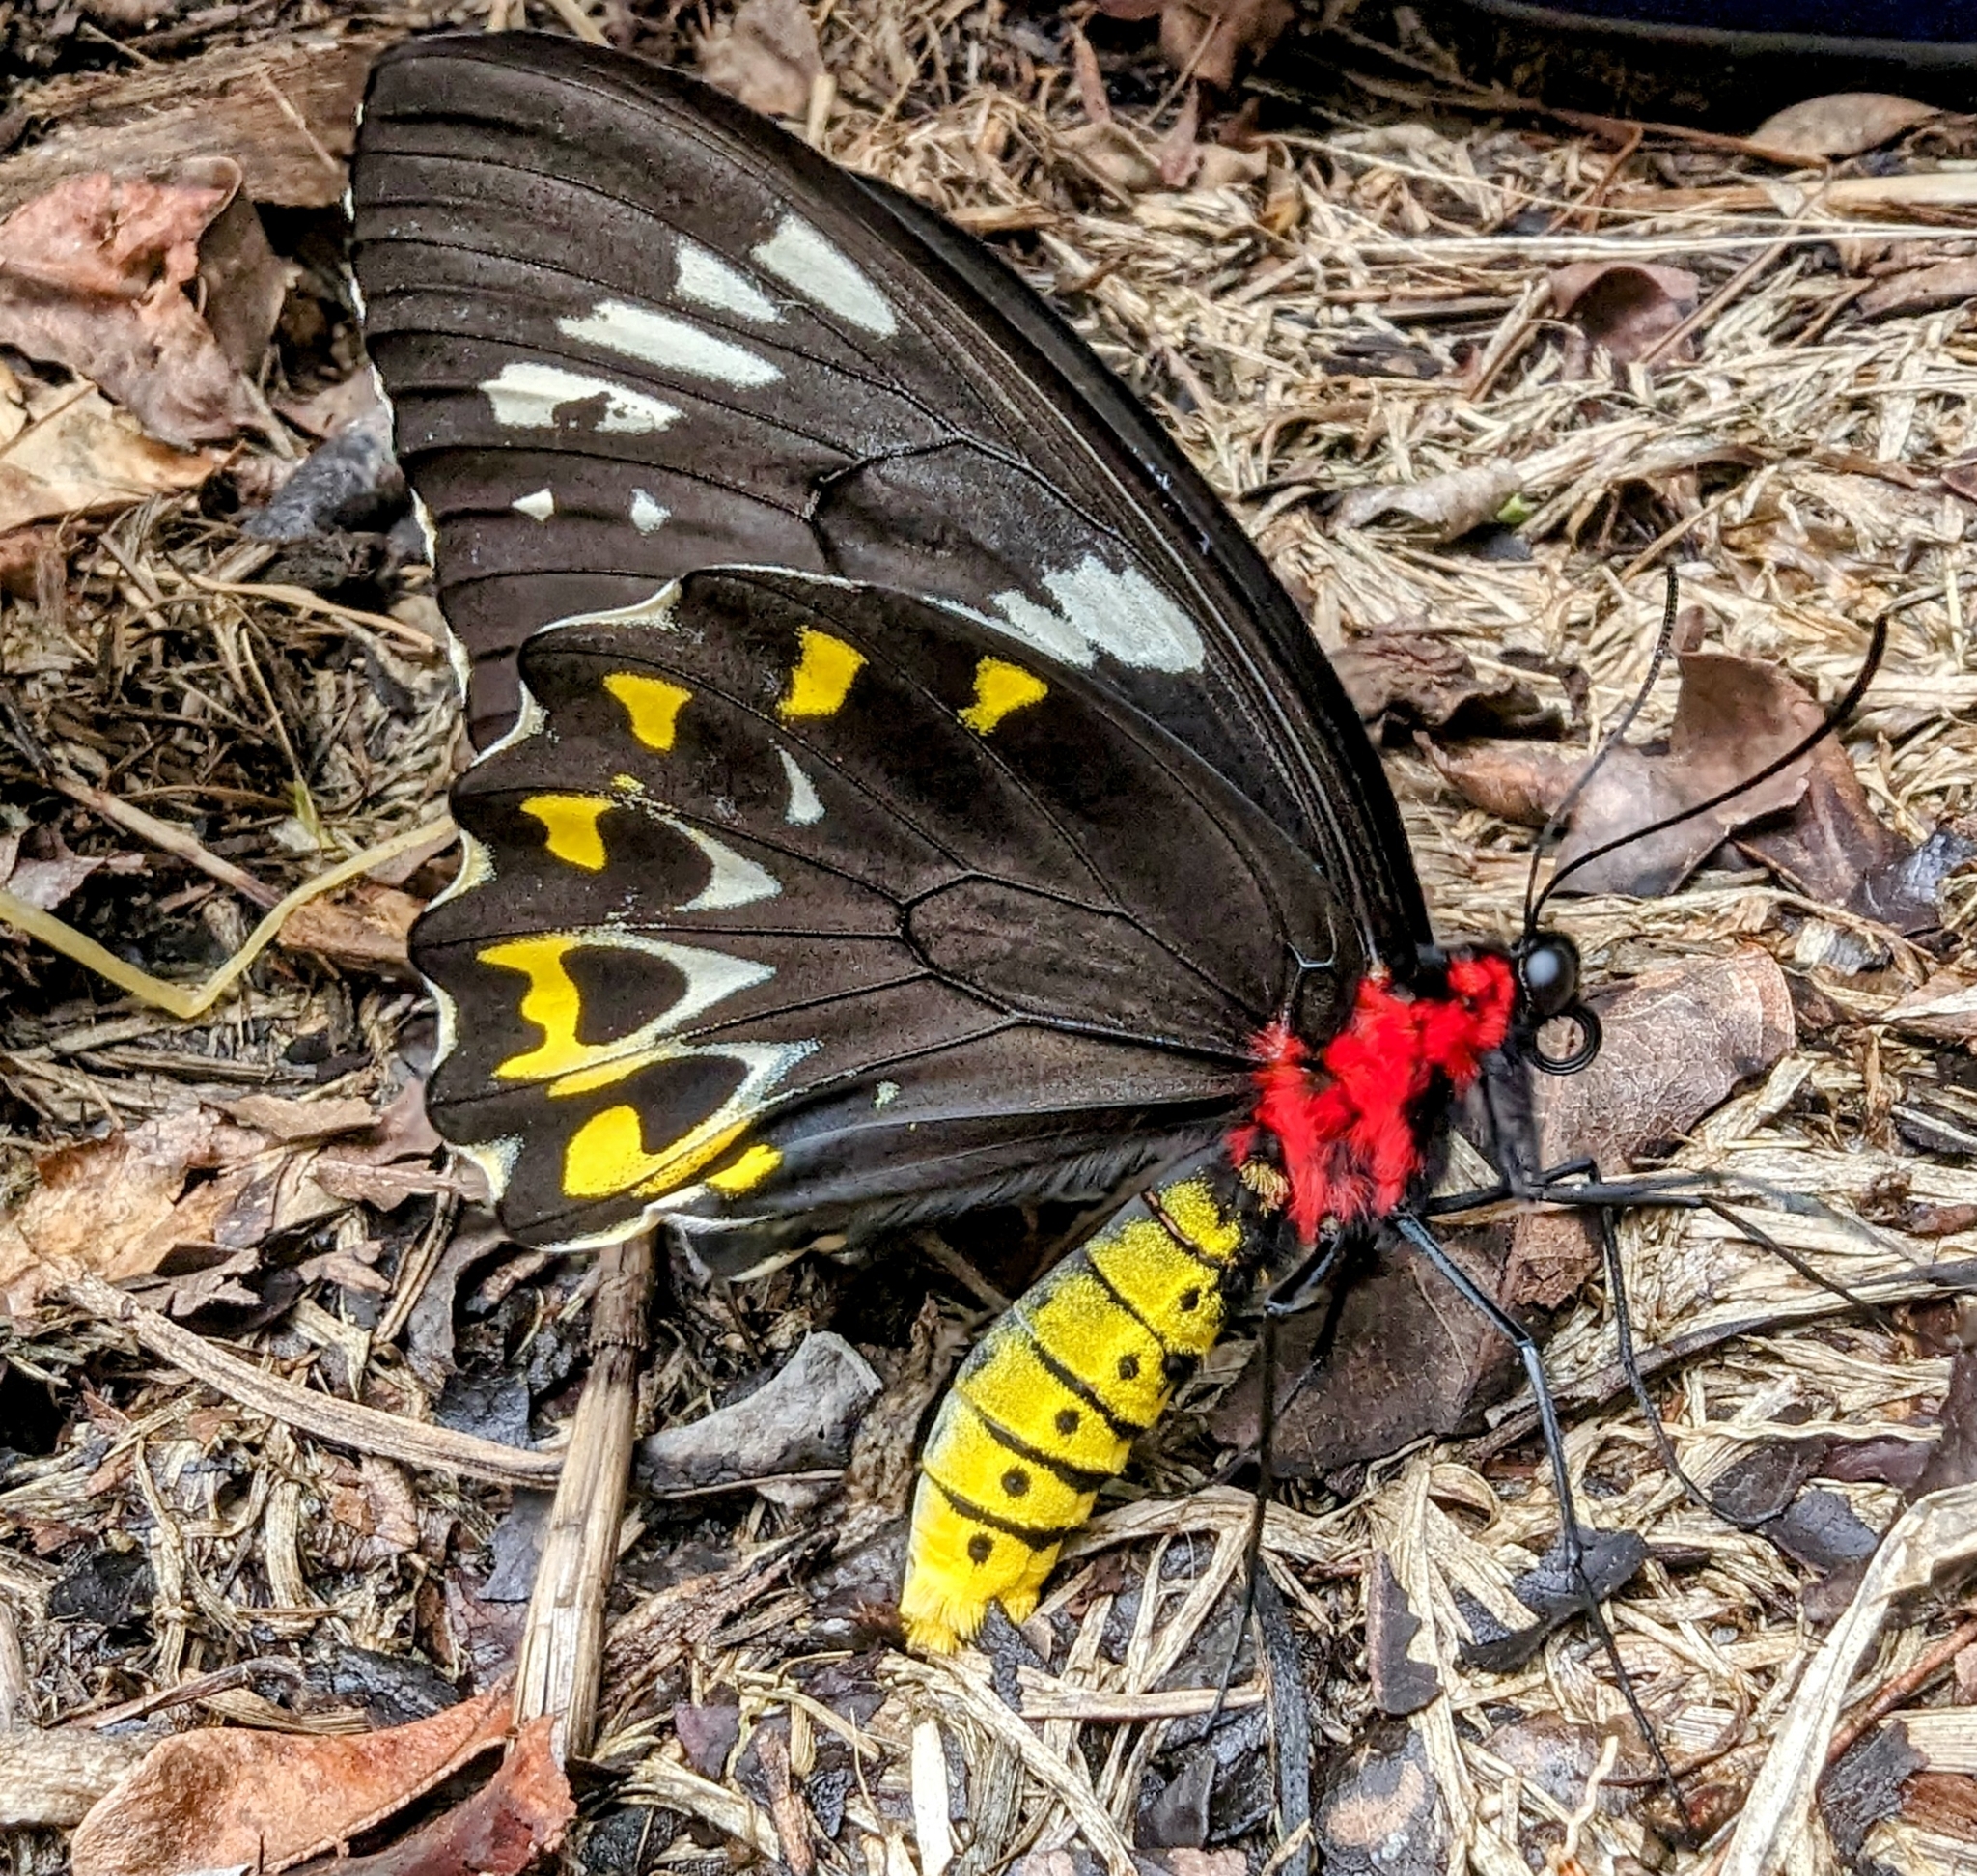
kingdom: Animalia
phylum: Arthropoda
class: Insecta
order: Lepidoptera
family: Papilionidae
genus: Ornithoptera
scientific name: Ornithoptera euphorion
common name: Cairns birdwing
